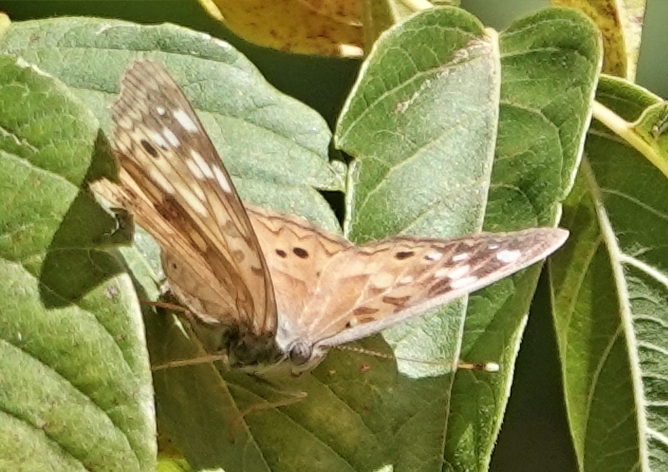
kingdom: Animalia
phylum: Arthropoda
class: Insecta
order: Lepidoptera
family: Nymphalidae
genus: Asterocampa
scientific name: Asterocampa celtis
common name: Hackberry emperor
